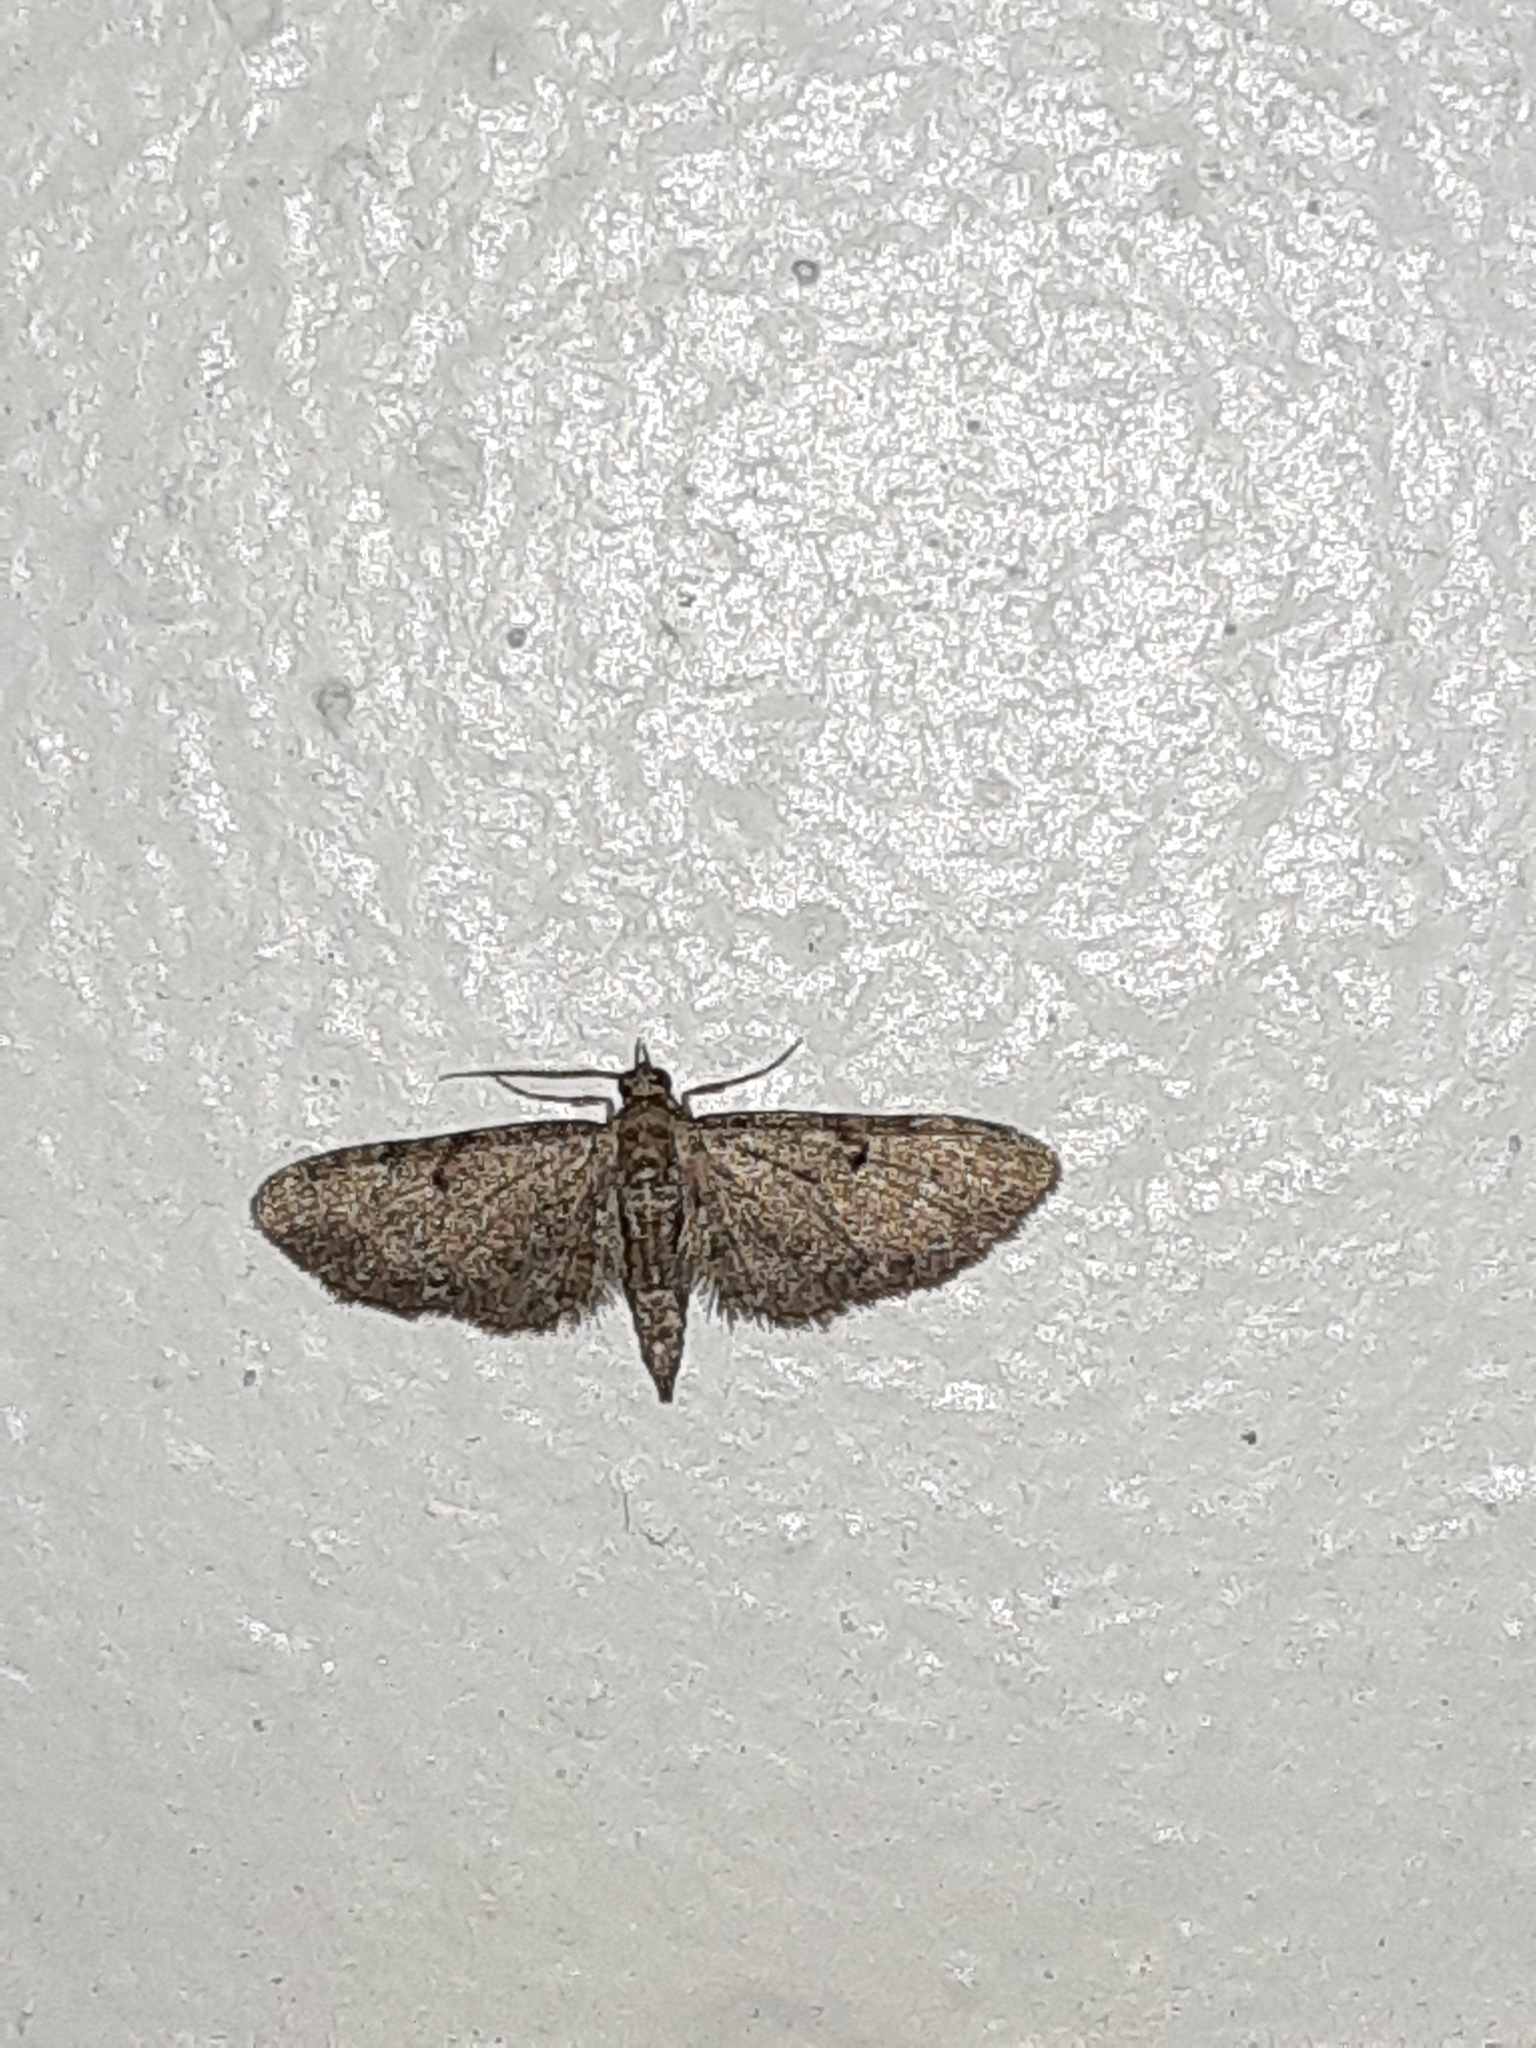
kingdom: Animalia
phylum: Arthropoda
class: Insecta
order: Lepidoptera
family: Geometridae
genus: Eupithecia
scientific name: Eupithecia miserulata
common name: Common eupithecia
